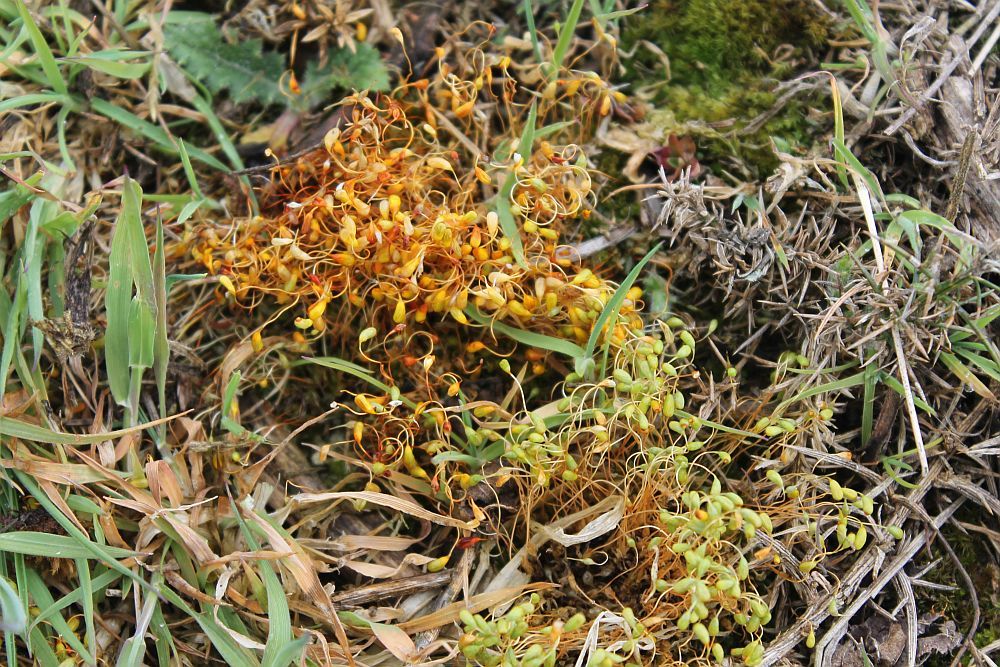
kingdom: Plantae
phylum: Bryophyta
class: Bryopsida
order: Funariales
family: Funariaceae
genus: Funaria
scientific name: Funaria hygrometrica
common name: Common cord moss
